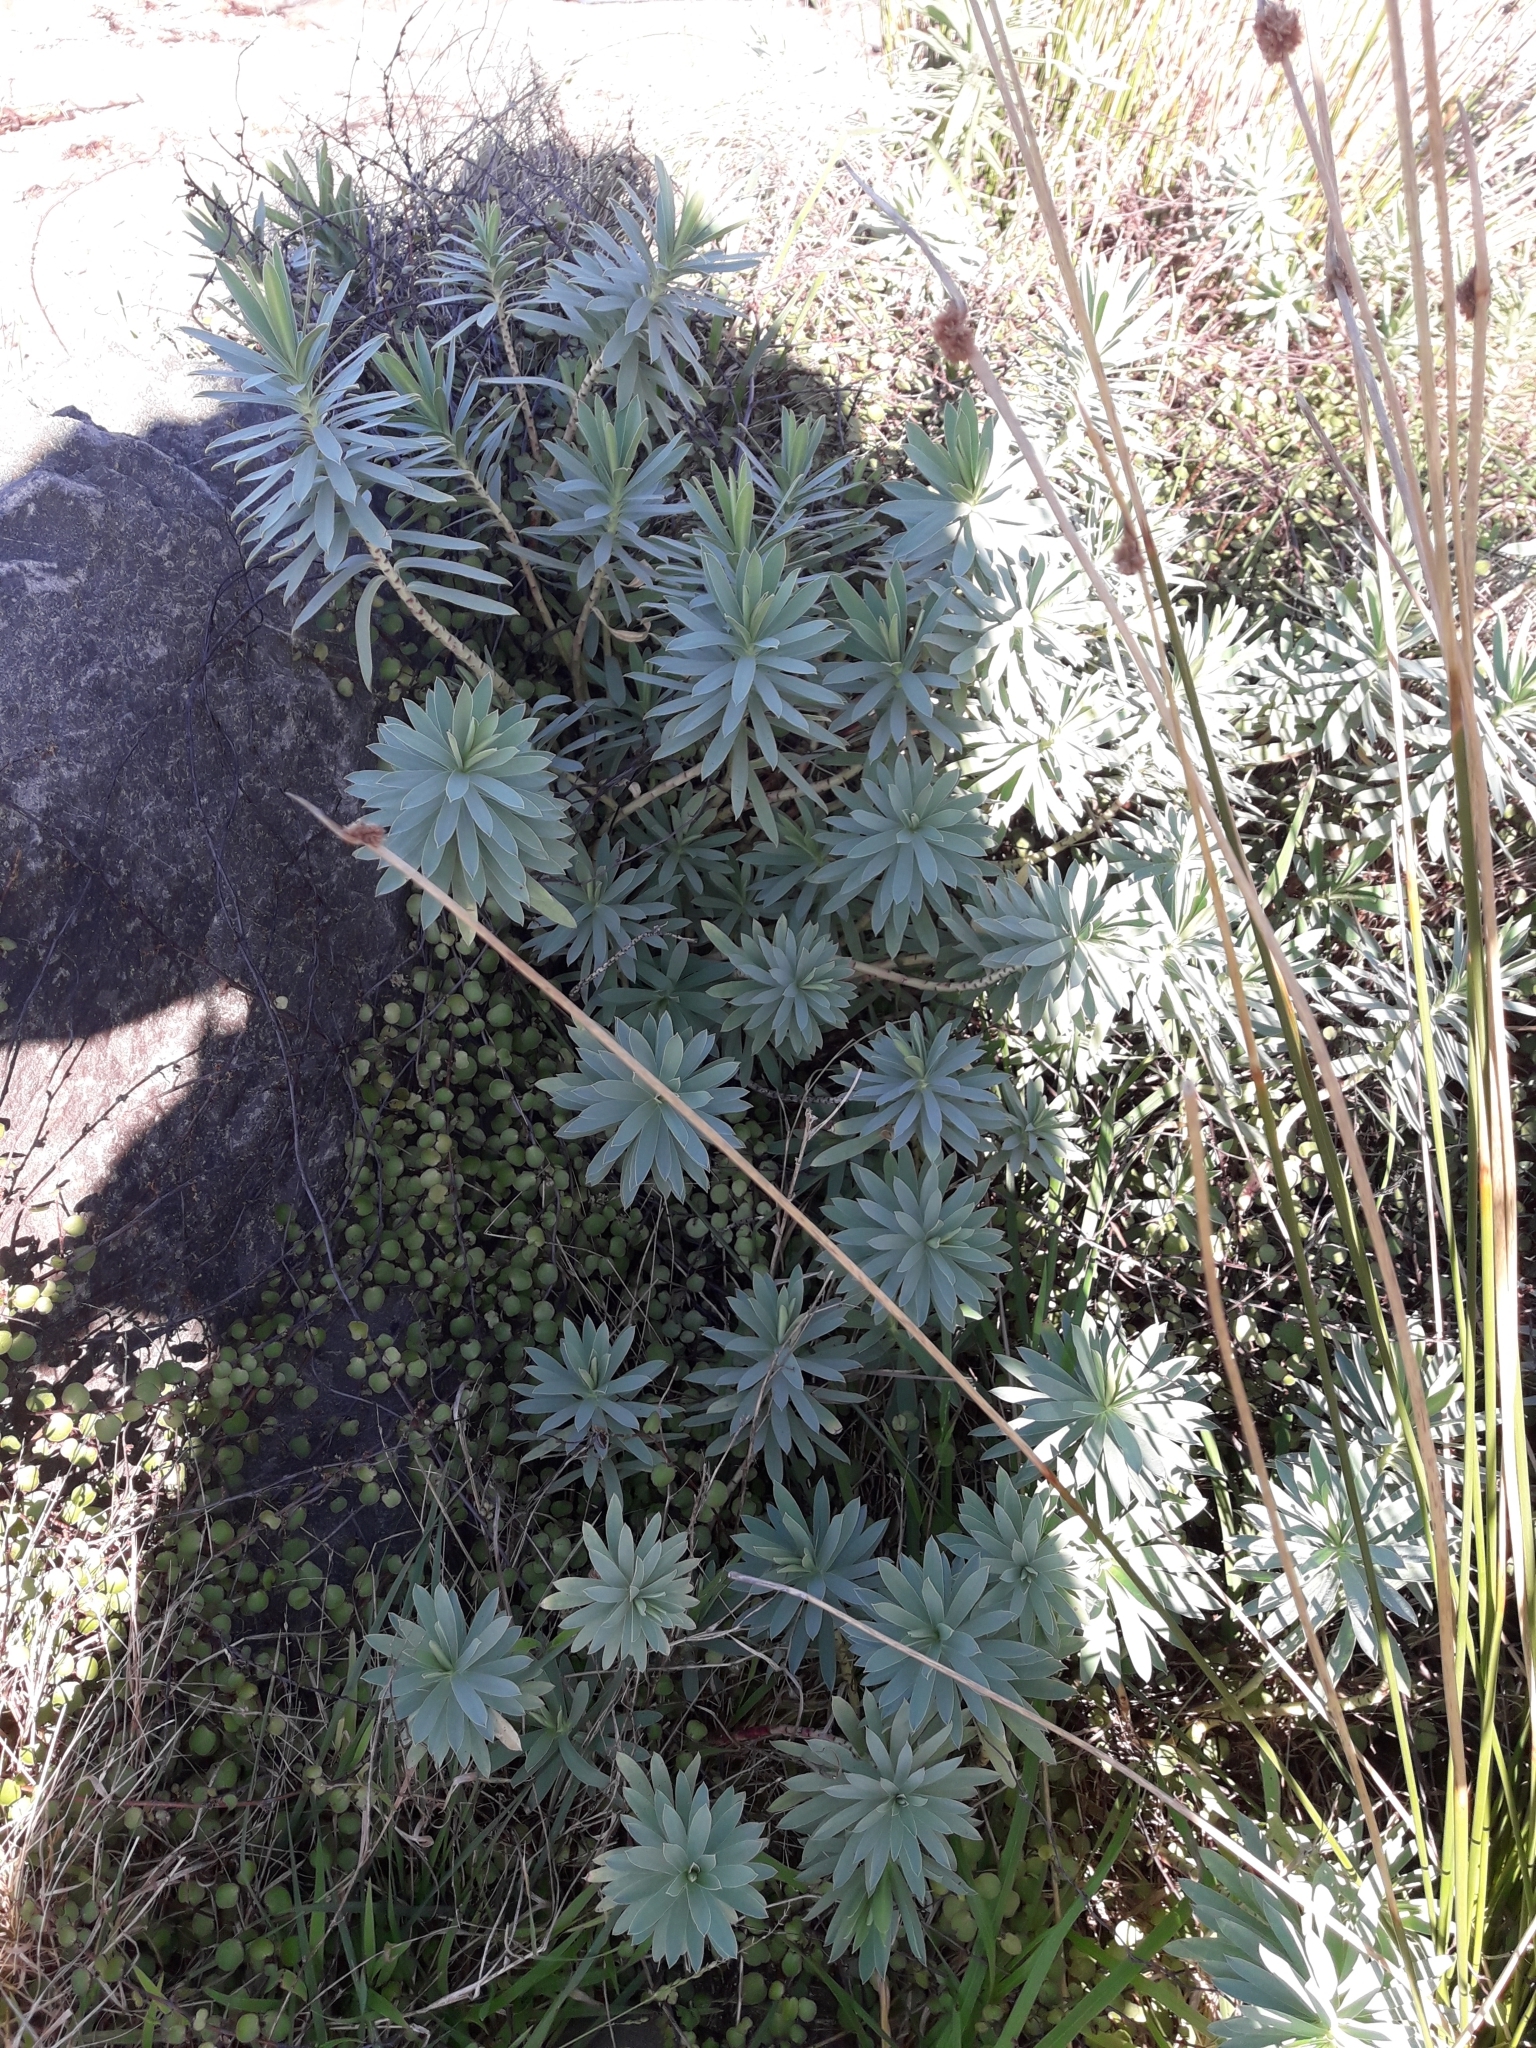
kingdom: Plantae
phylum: Tracheophyta
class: Magnoliopsida
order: Malpighiales
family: Euphorbiaceae
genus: Euphorbia
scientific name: Euphorbia glauca
